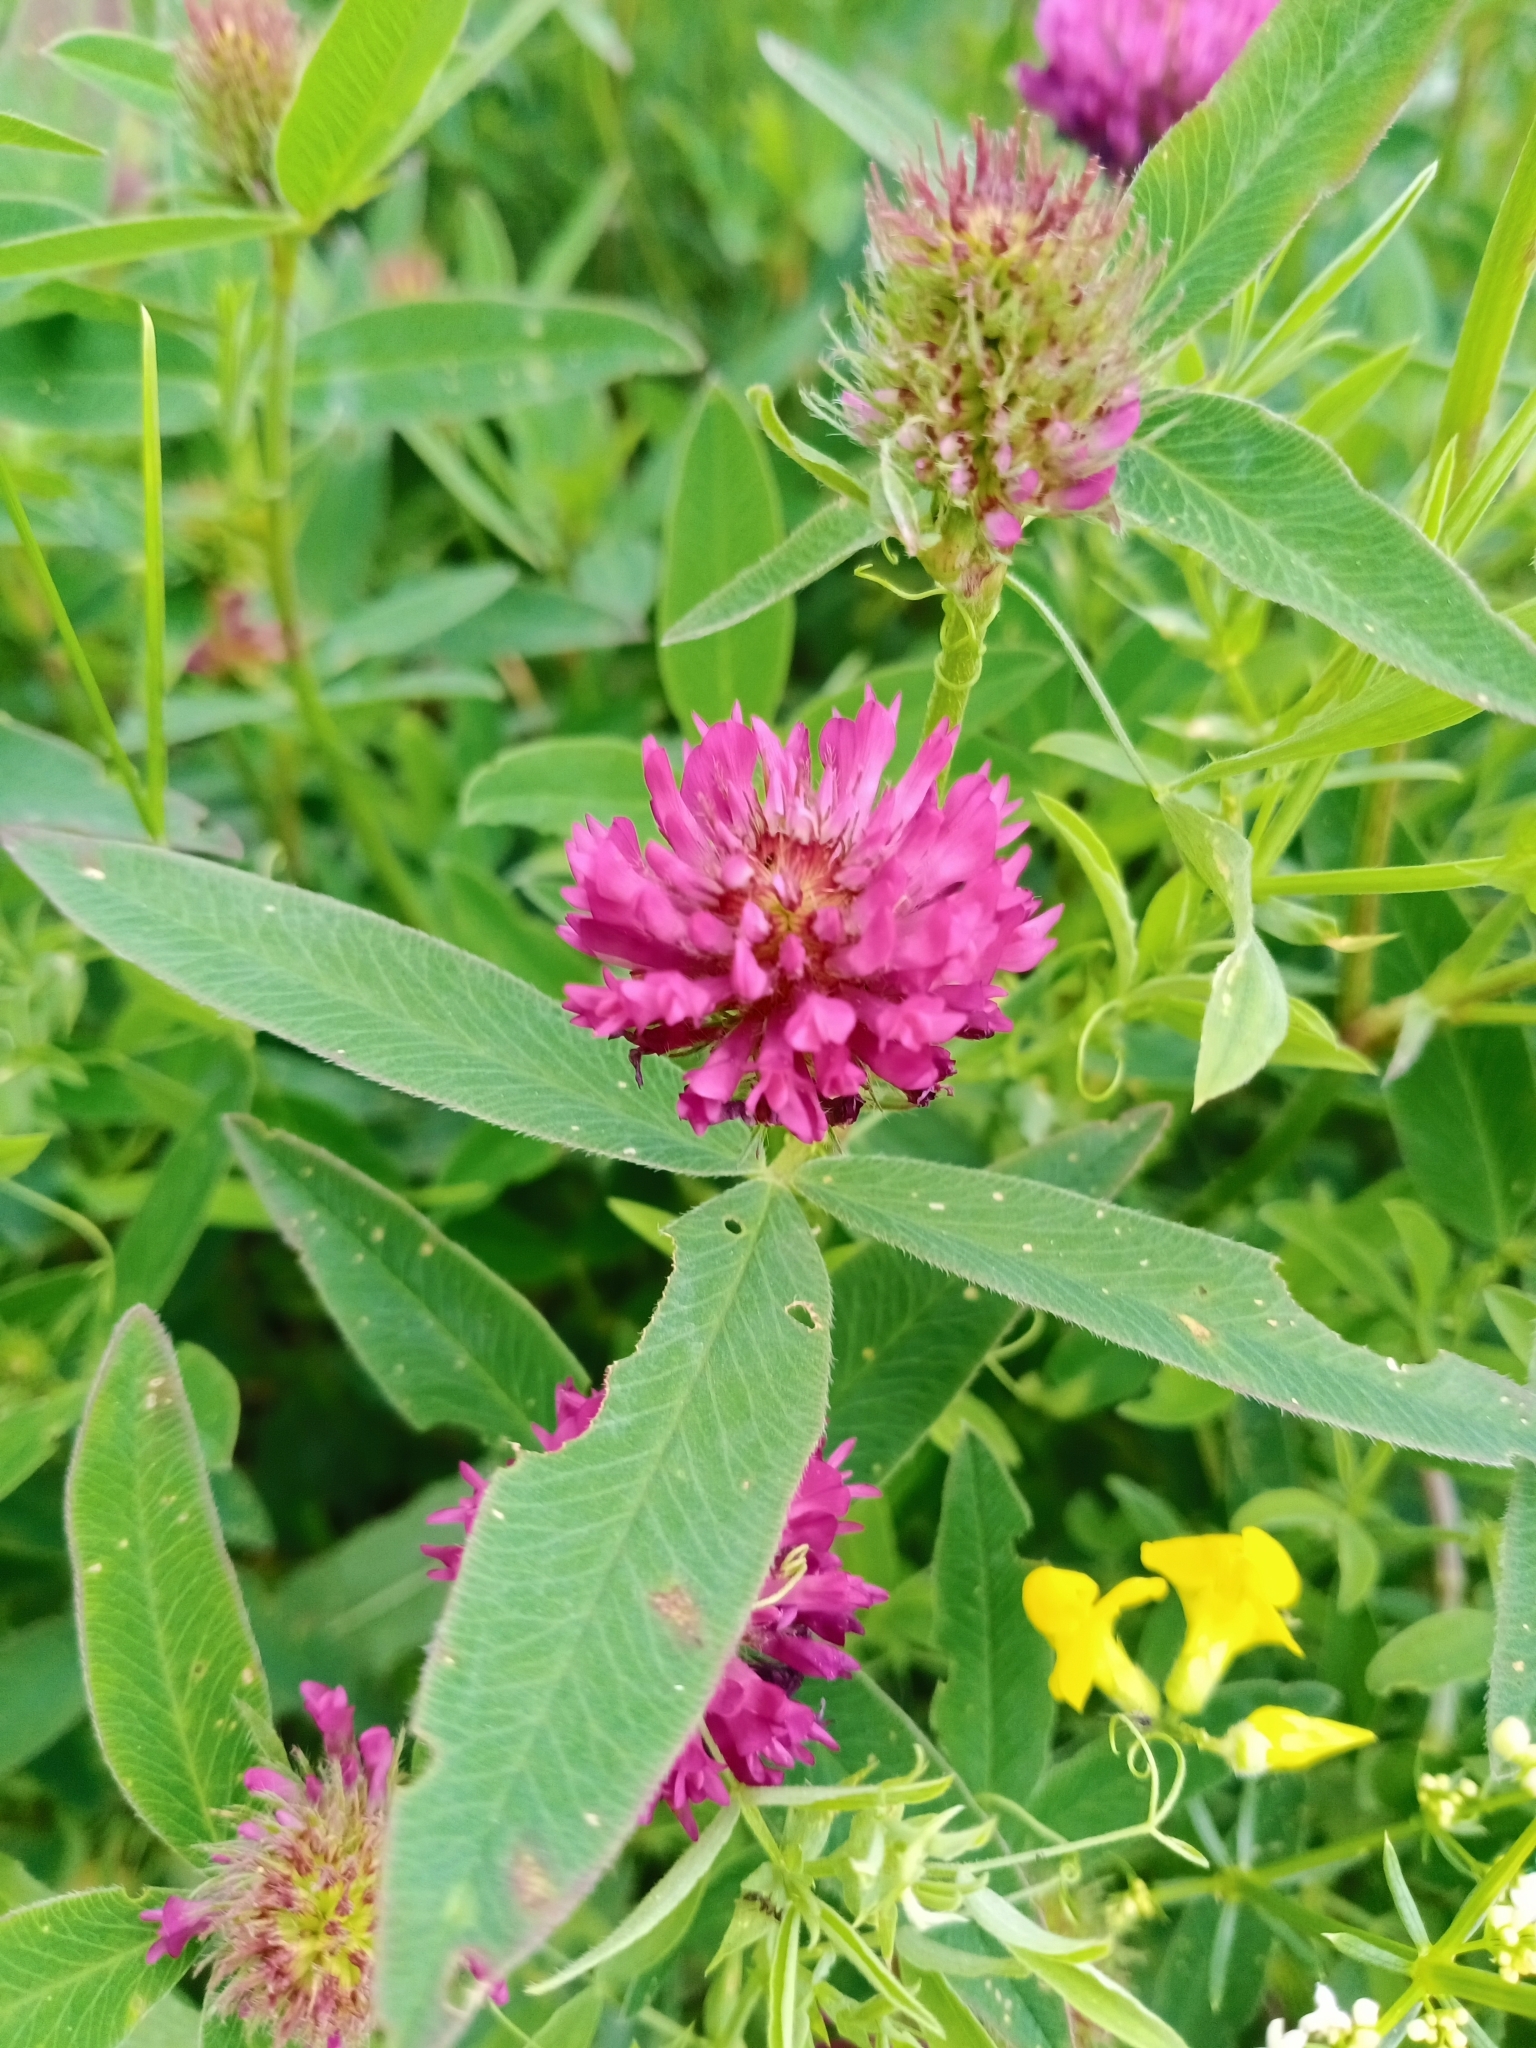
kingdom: Plantae
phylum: Tracheophyta
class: Magnoliopsida
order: Fabales
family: Fabaceae
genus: Trifolium
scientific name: Trifolium medium
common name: Zigzag clover
